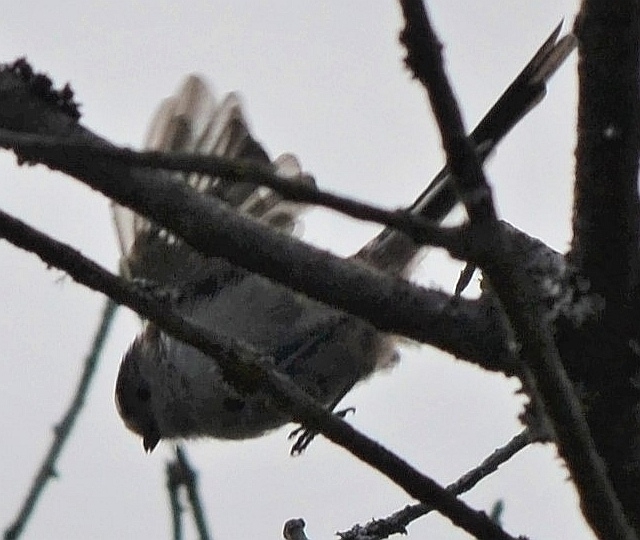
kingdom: Animalia
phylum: Chordata
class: Aves
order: Passeriformes
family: Aegithalidae
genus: Aegithalos
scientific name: Aegithalos caudatus
